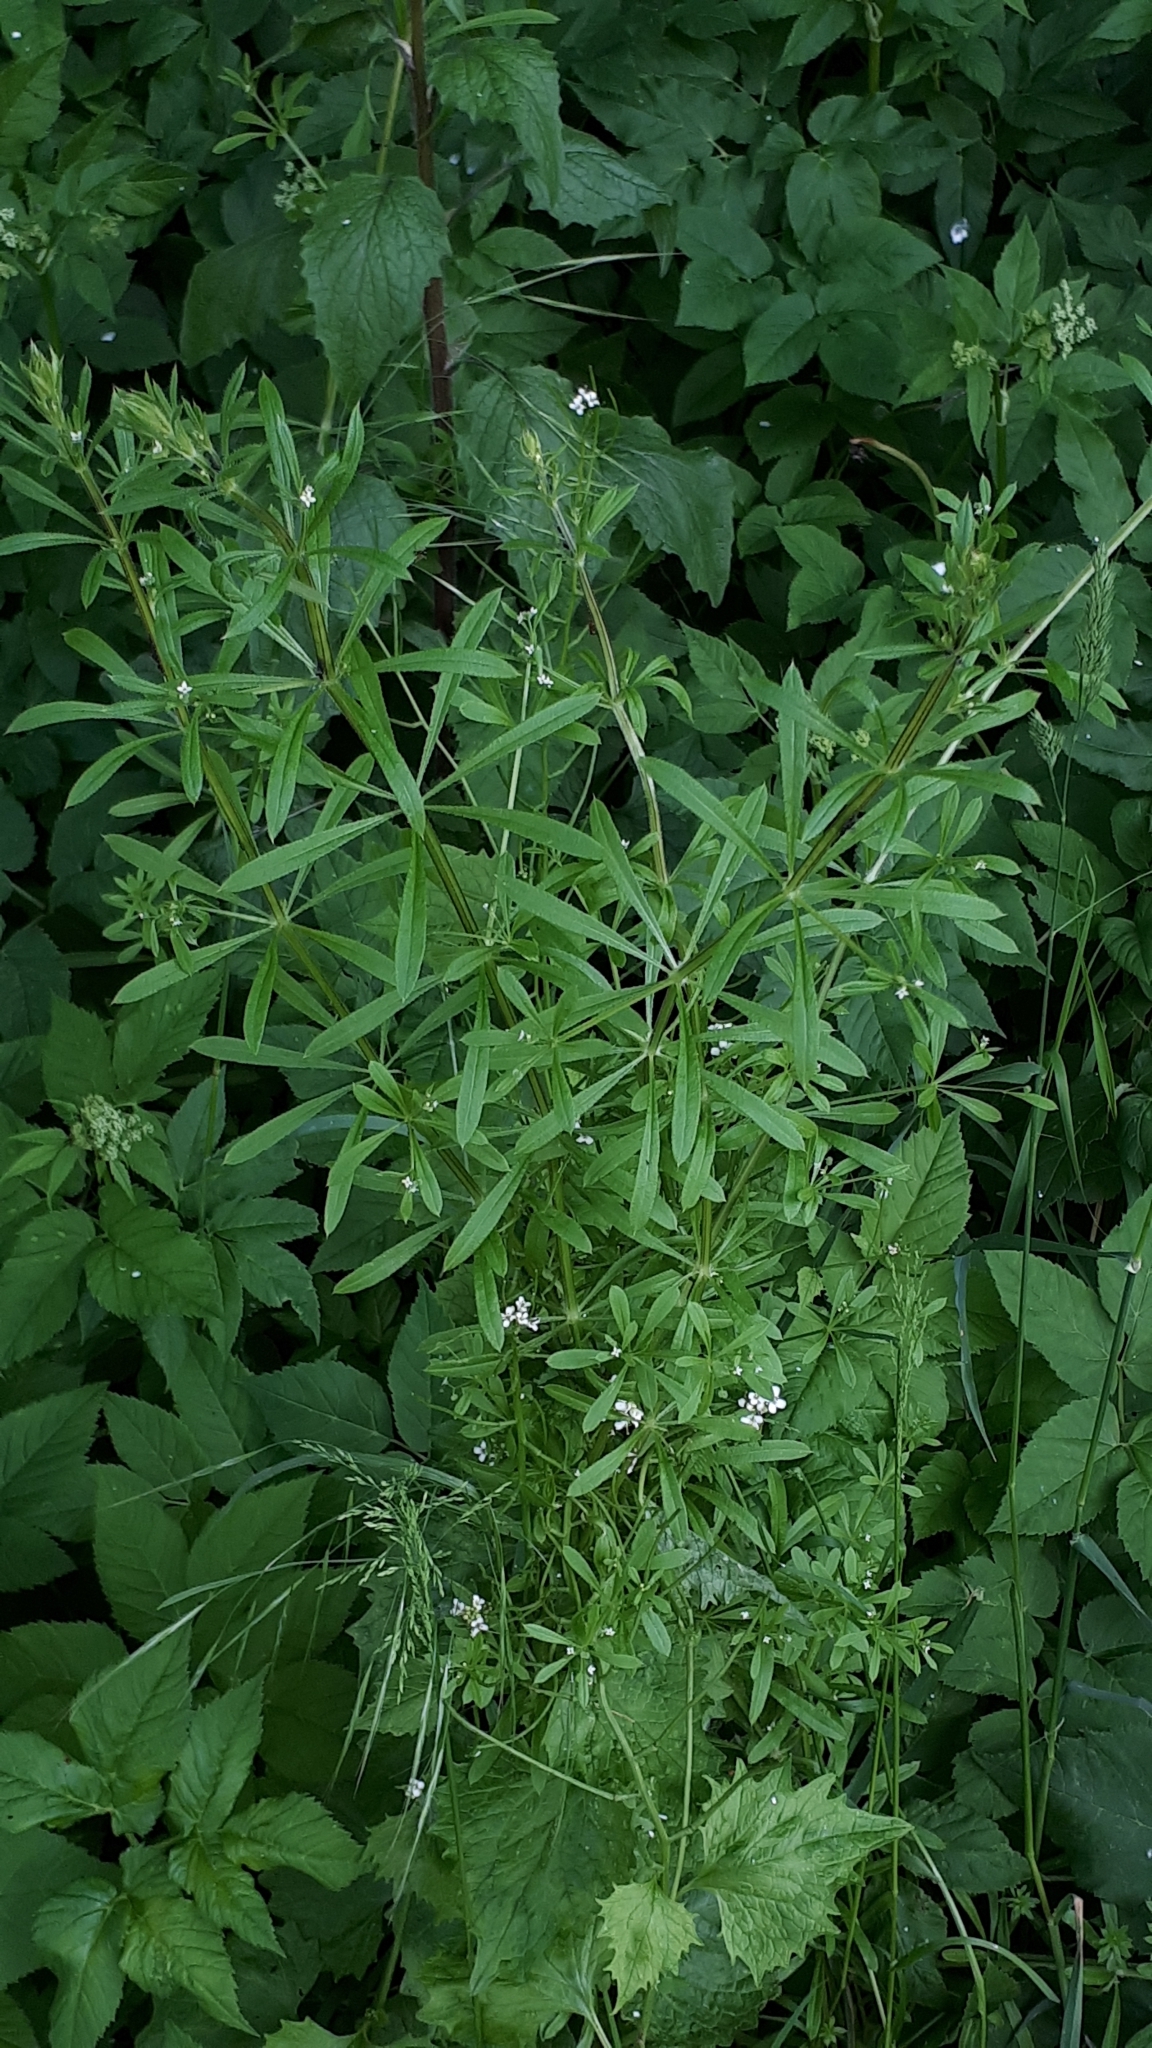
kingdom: Plantae
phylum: Tracheophyta
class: Magnoliopsida
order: Gentianales
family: Rubiaceae
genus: Galium
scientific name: Galium aparine
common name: Cleavers
